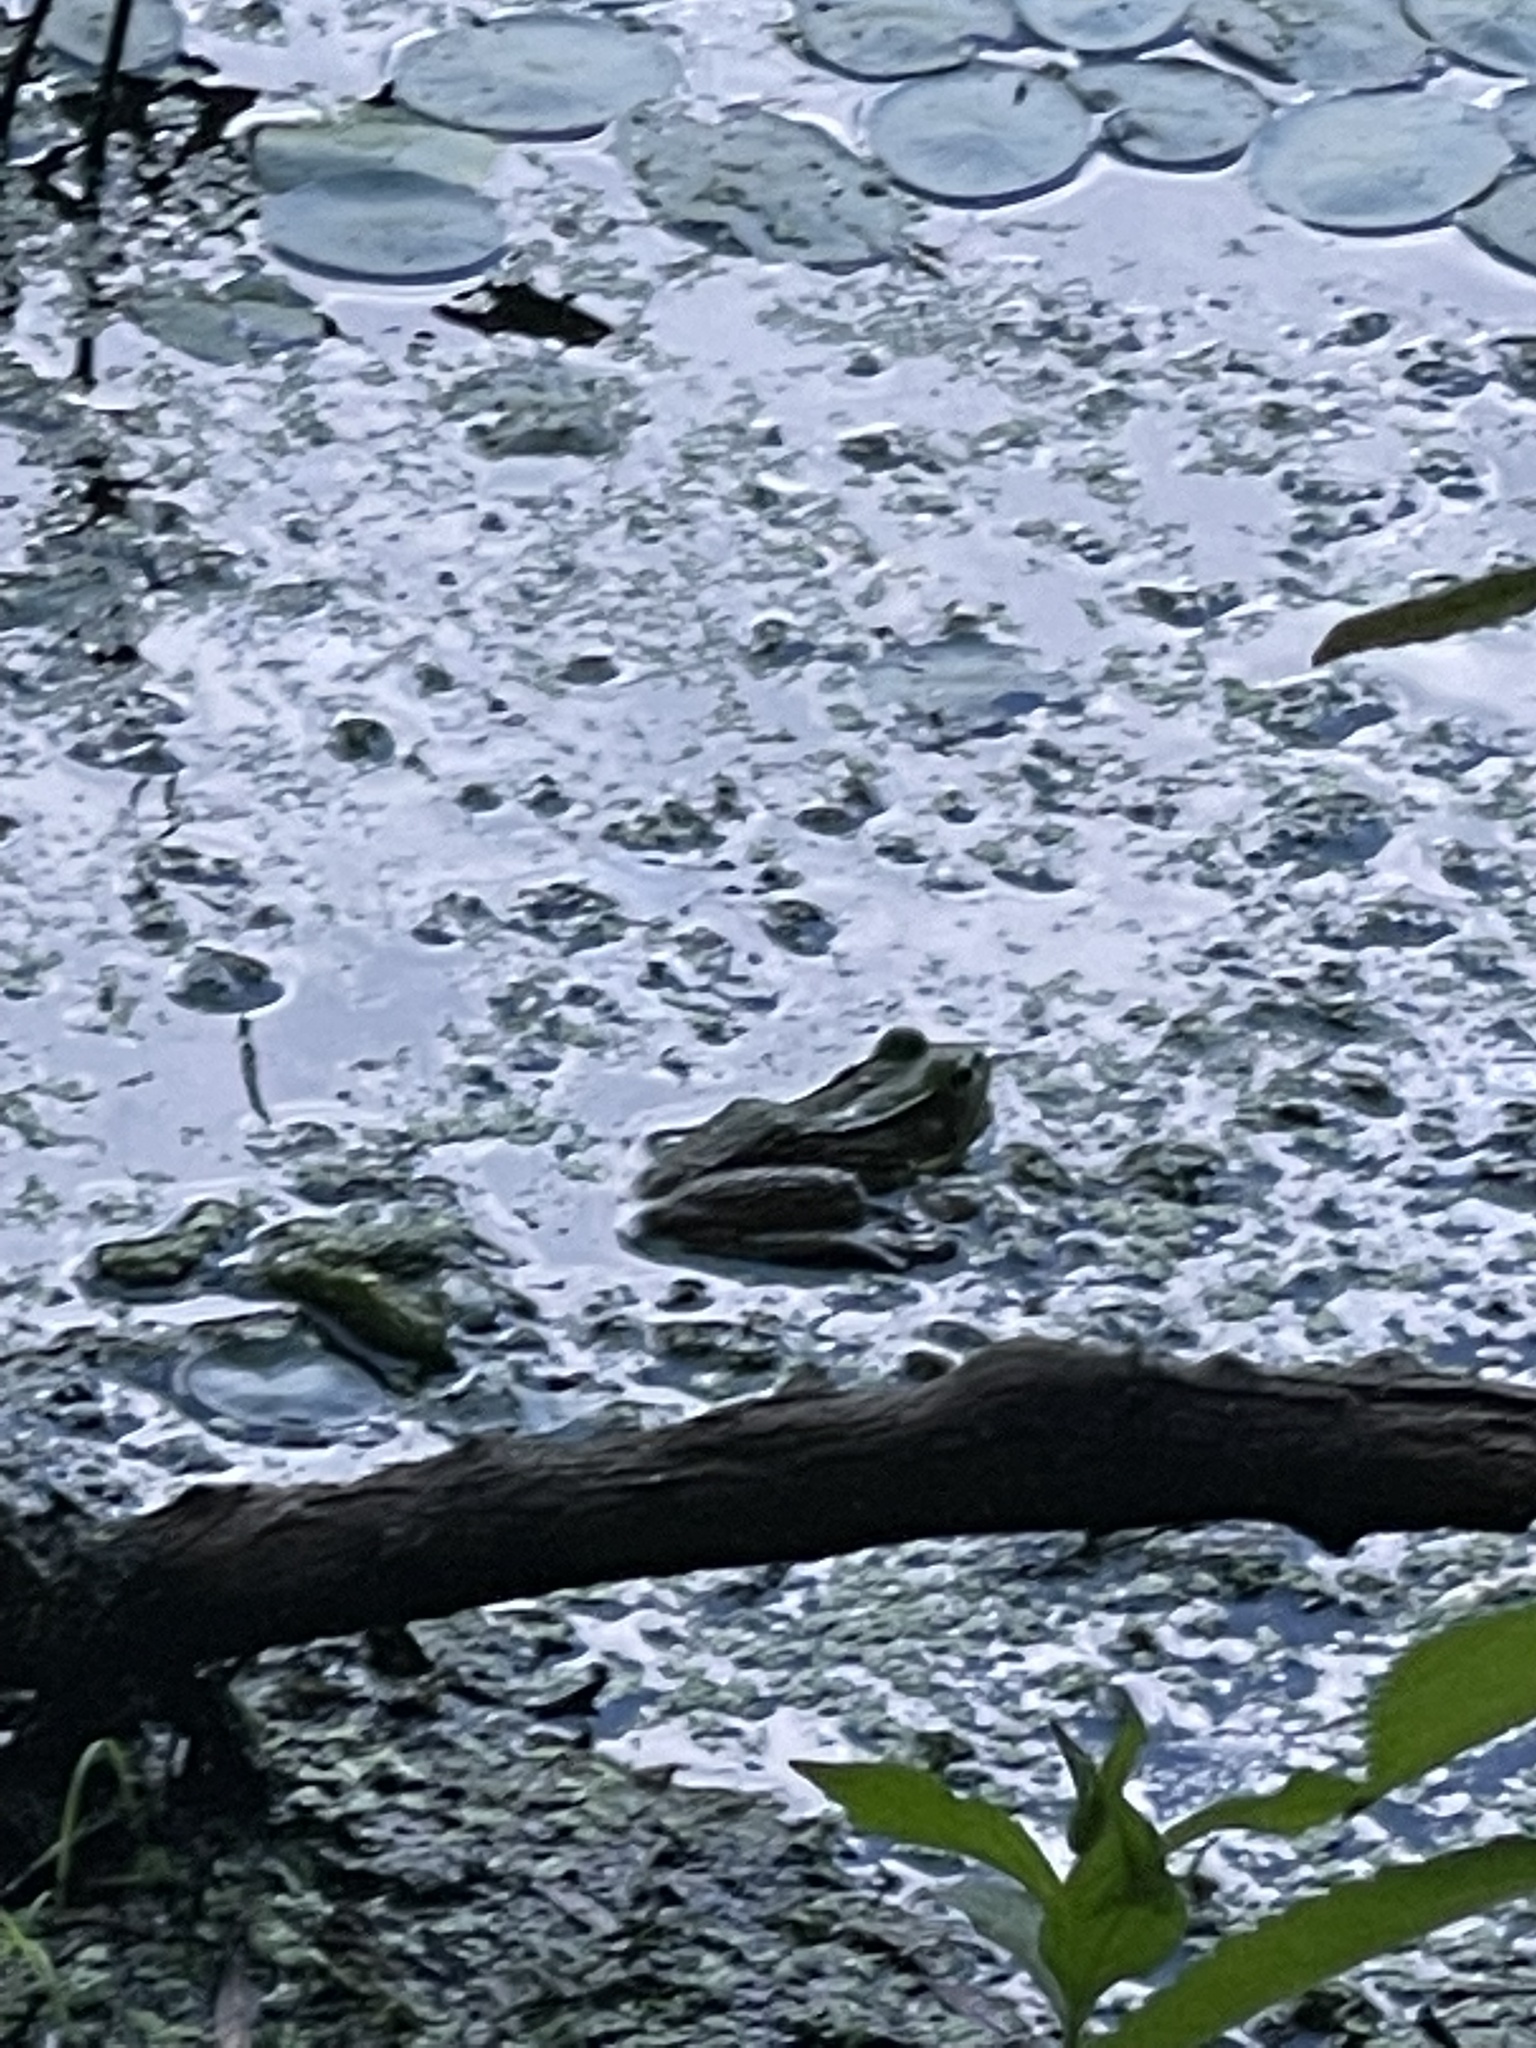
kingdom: Animalia
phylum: Chordata
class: Amphibia
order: Anura
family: Ranidae
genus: Lithobates
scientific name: Lithobates clamitans
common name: Green frog
